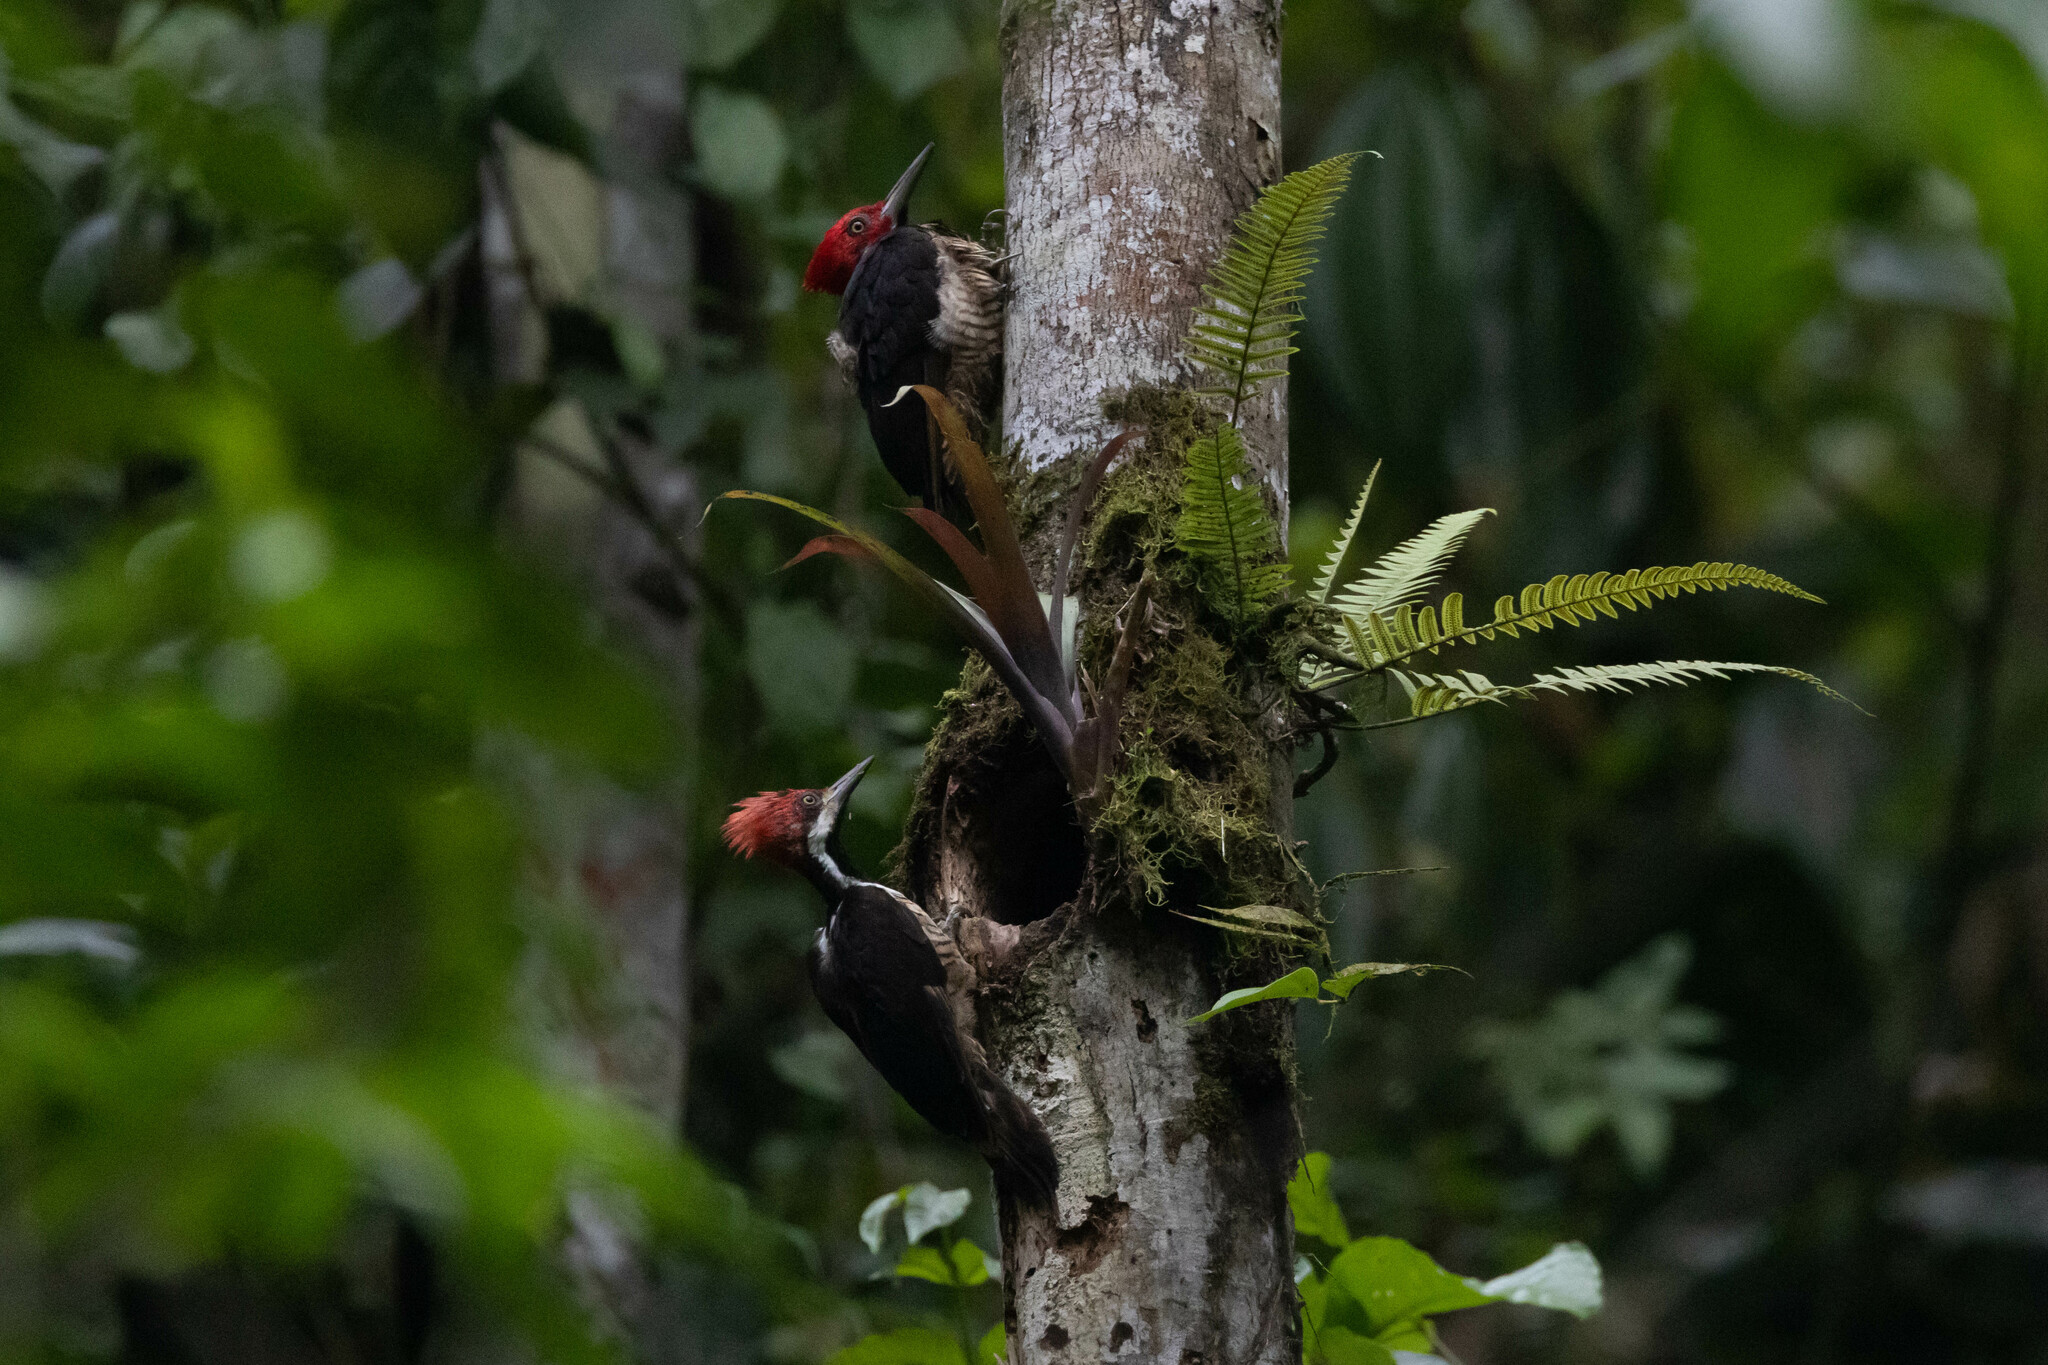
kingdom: Animalia
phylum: Chordata
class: Aves
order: Piciformes
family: Picidae
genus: Campephilus
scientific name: Campephilus gayaquilensis
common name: Guayaquil woodpecker
